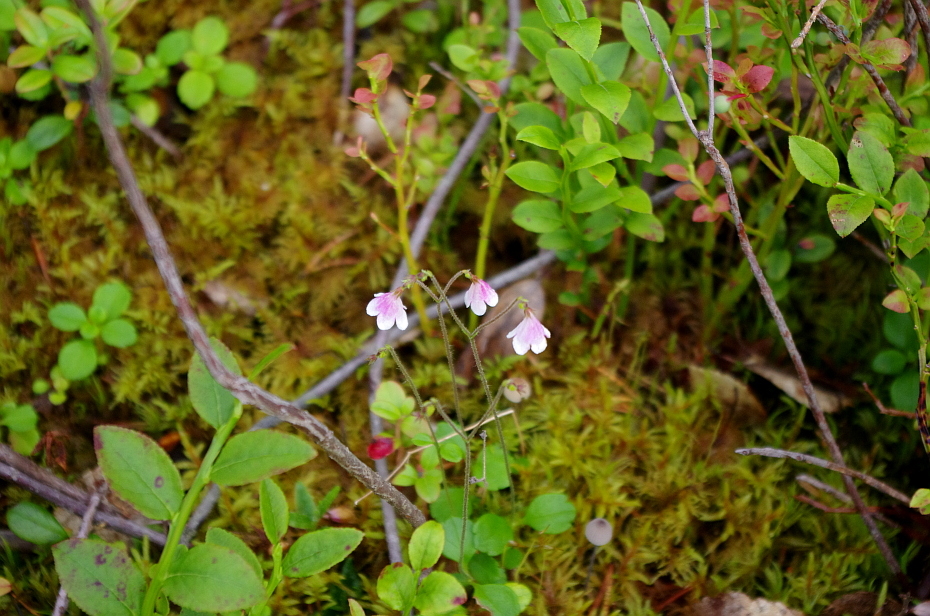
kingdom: Plantae
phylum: Tracheophyta
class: Magnoliopsida
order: Ericales
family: Ericaceae
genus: Vaccinium
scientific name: Vaccinium myrtillus
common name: Bilberry
